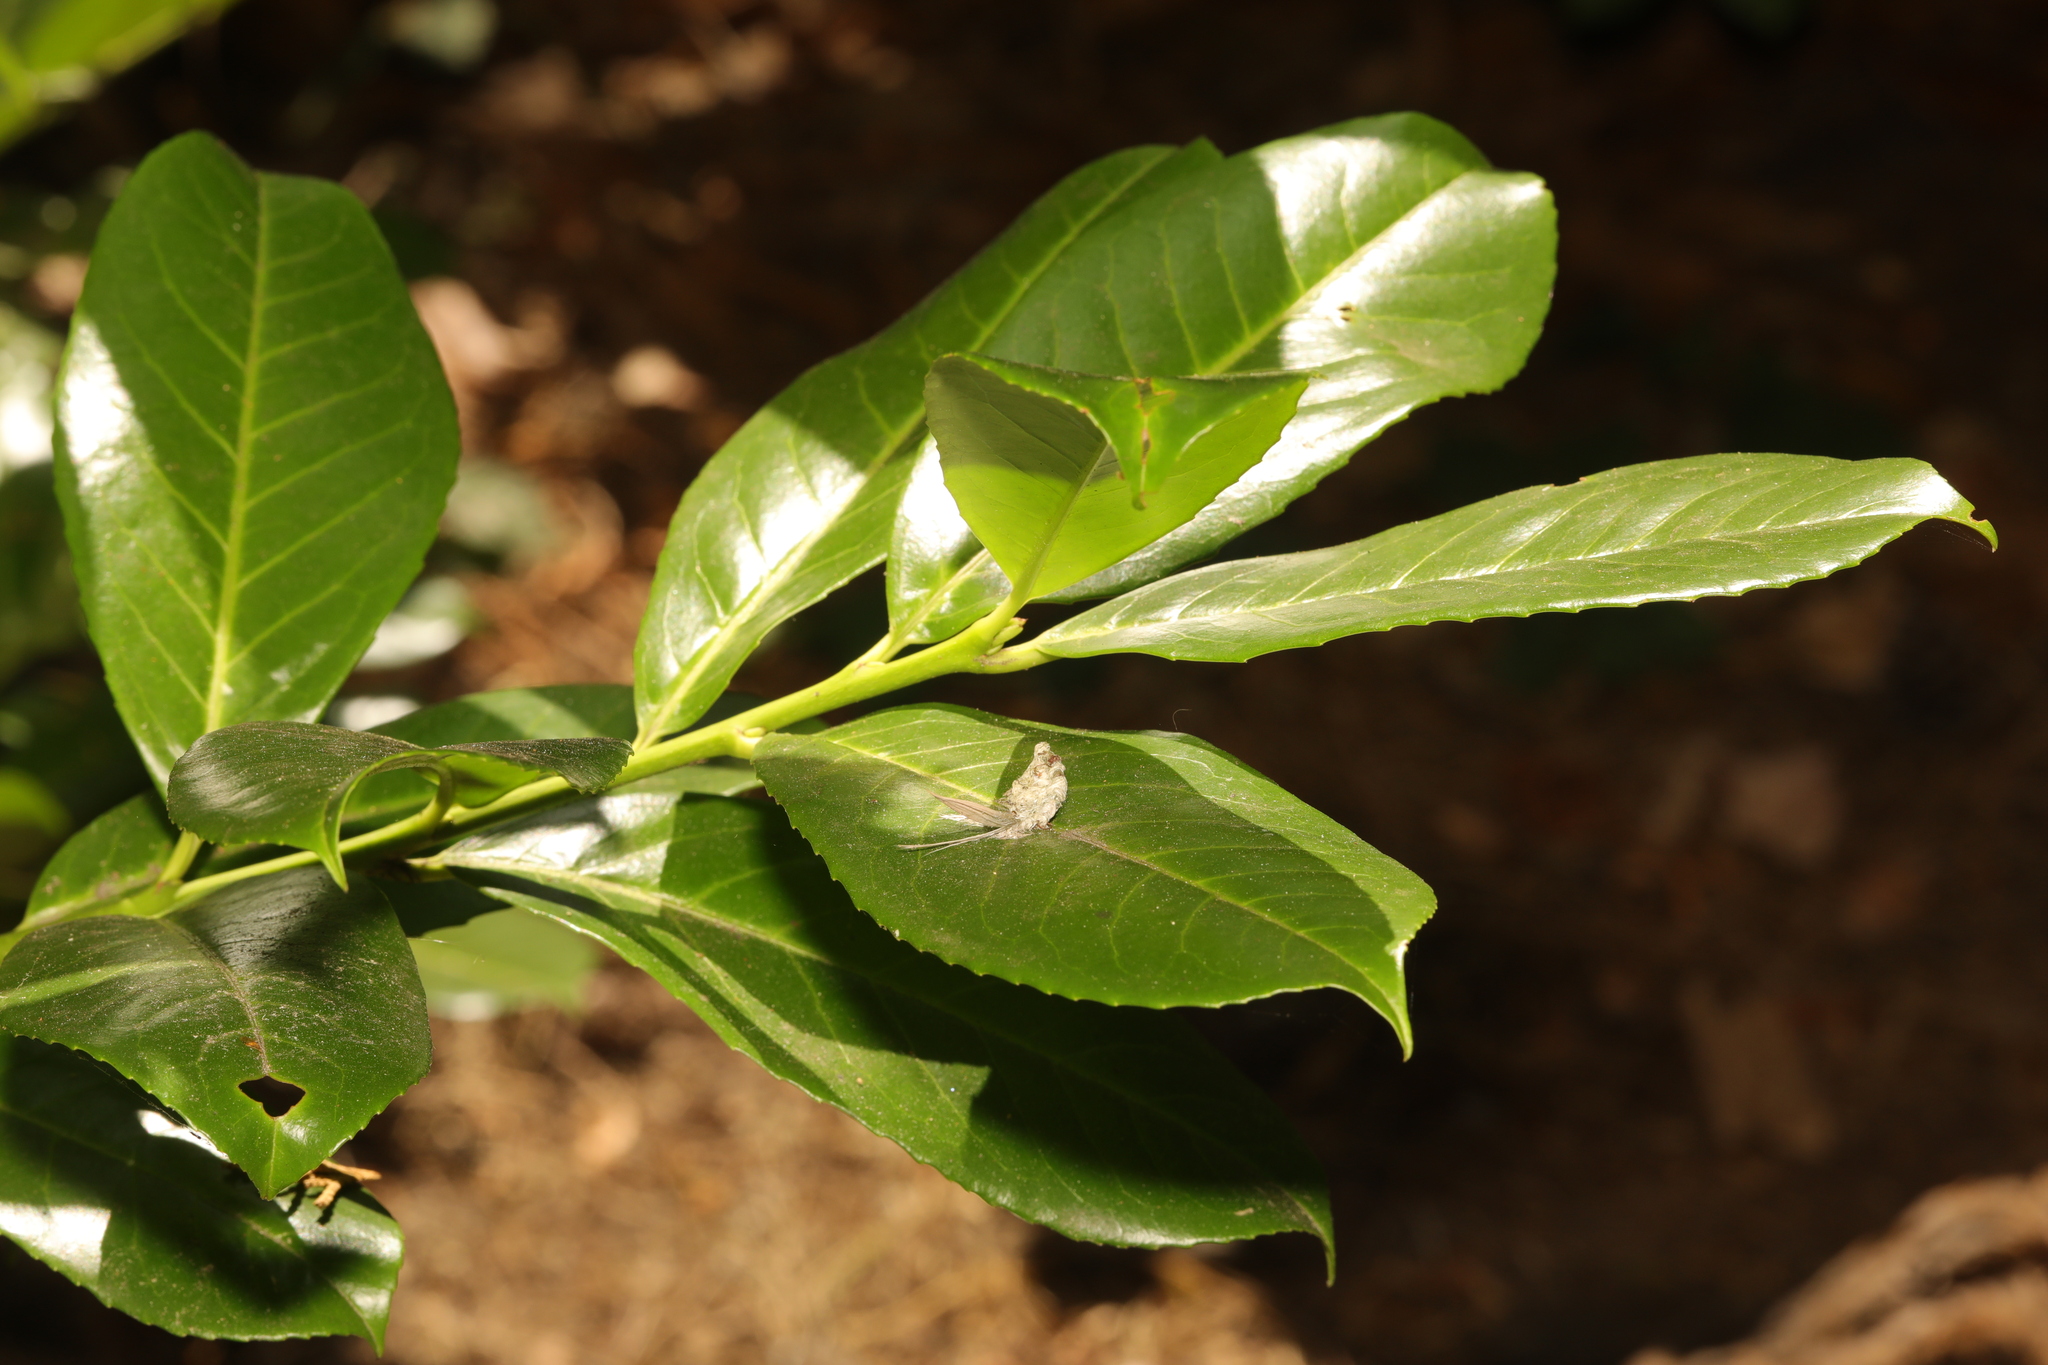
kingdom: Plantae
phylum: Tracheophyta
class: Magnoliopsida
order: Rosales
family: Rosaceae
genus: Prunus
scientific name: Prunus laurocerasus
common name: Cherry laurel
